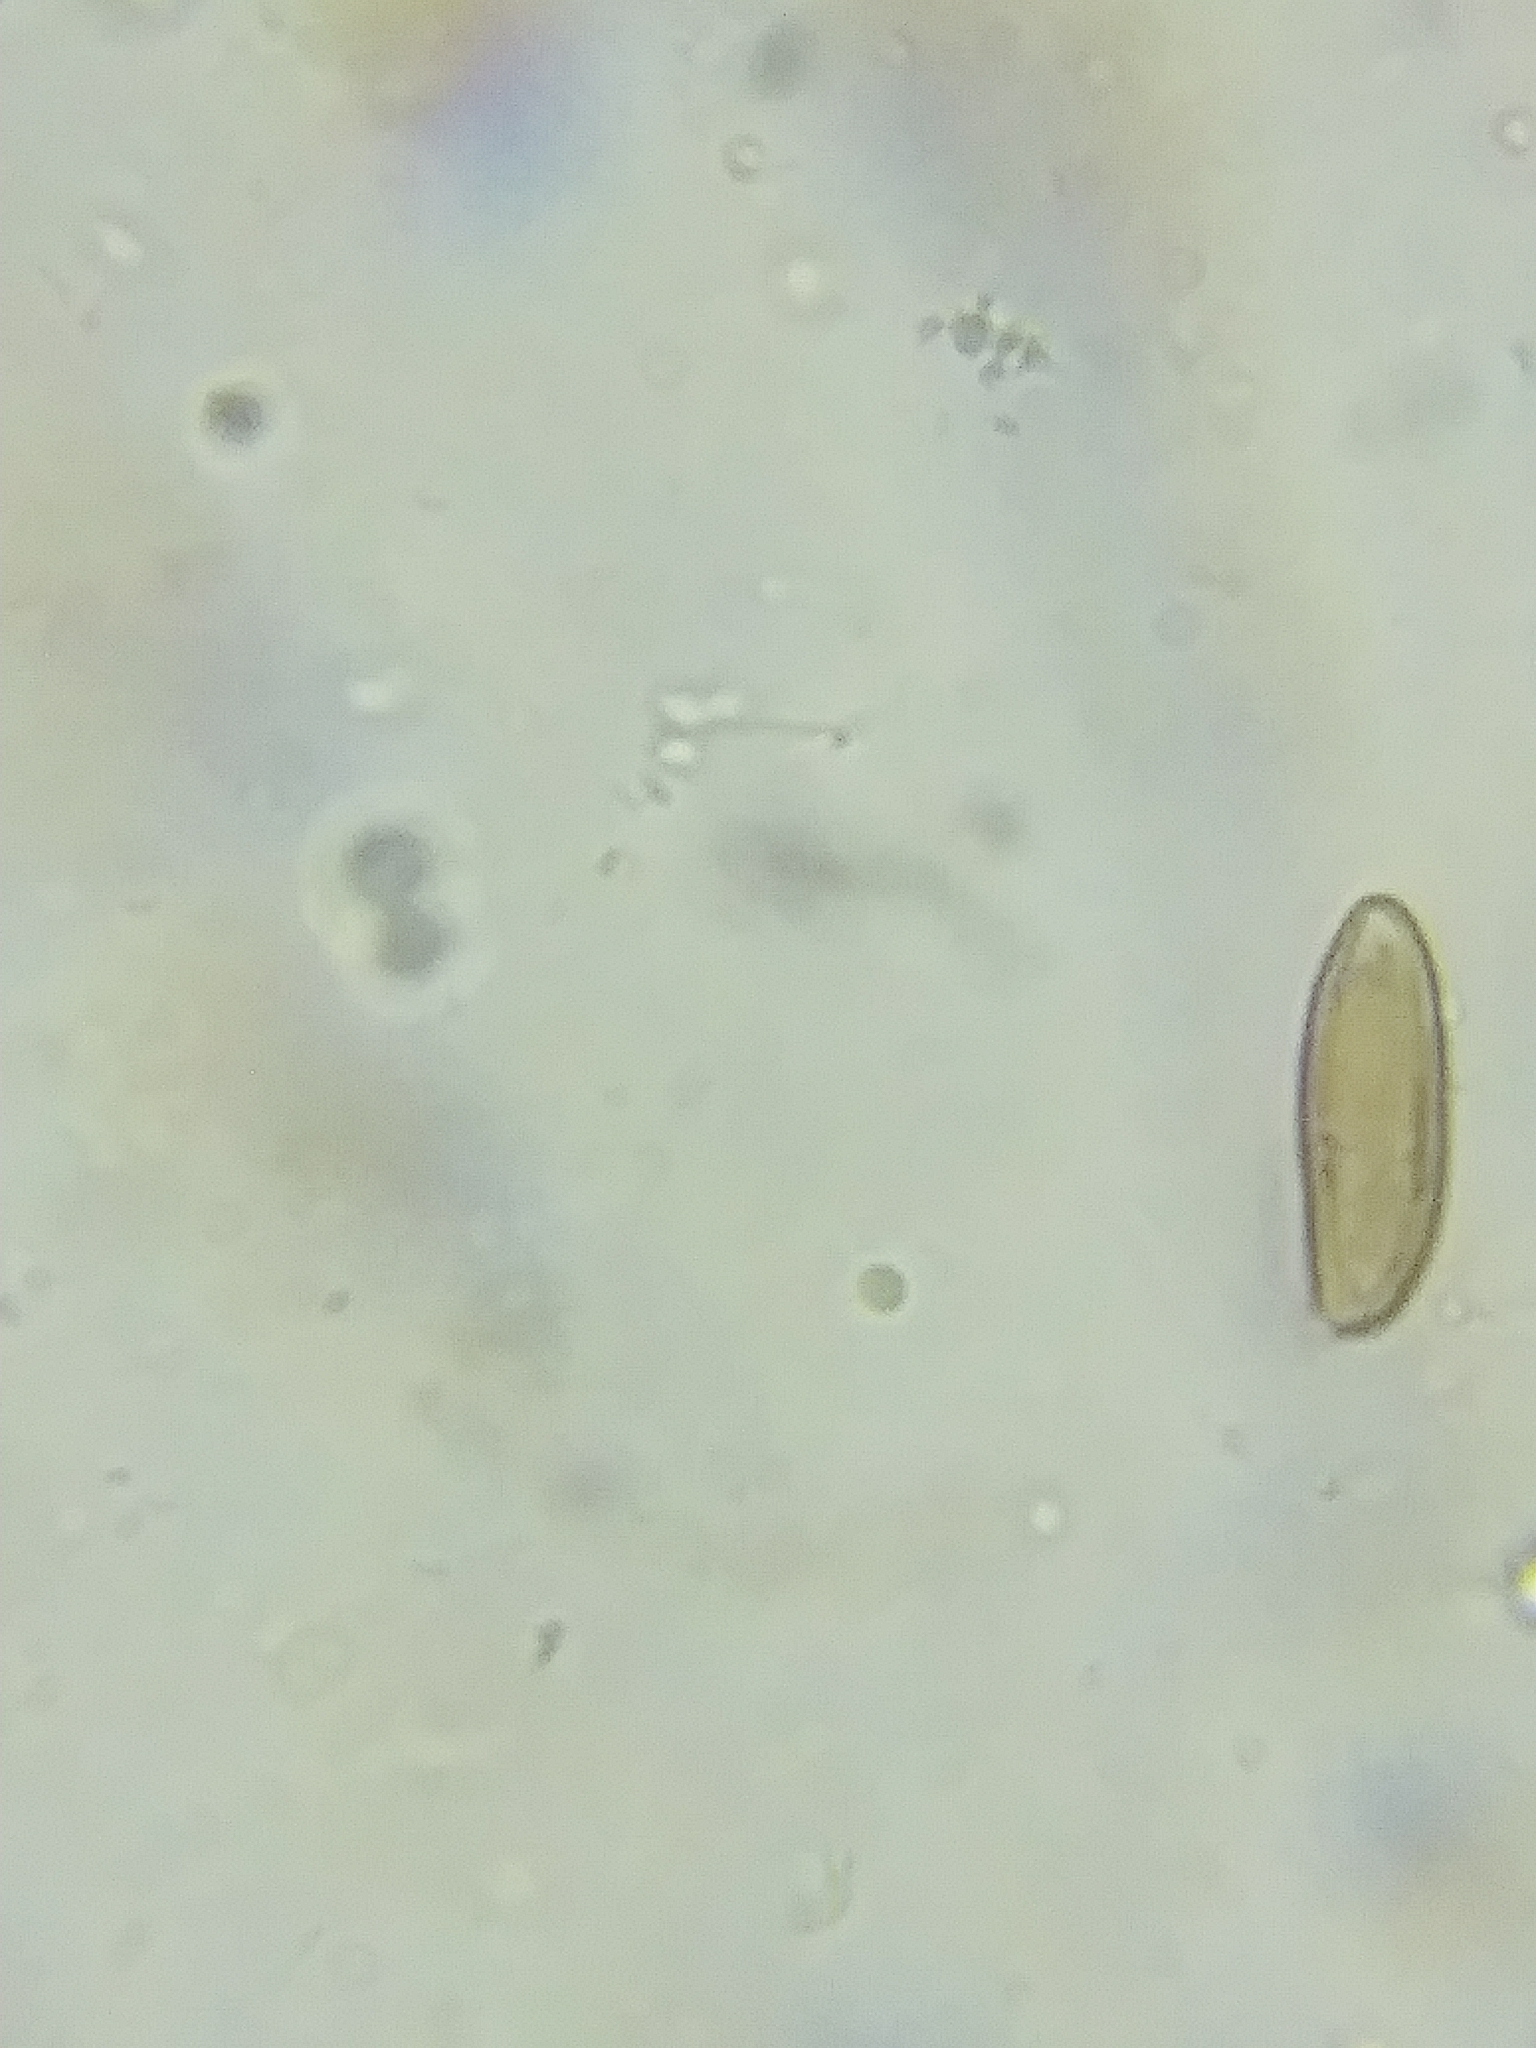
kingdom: Fungi
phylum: Basidiomycota
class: Agaricomycetes
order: Boletales
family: Boletaceae
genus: Imleria
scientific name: Imleria pallida
